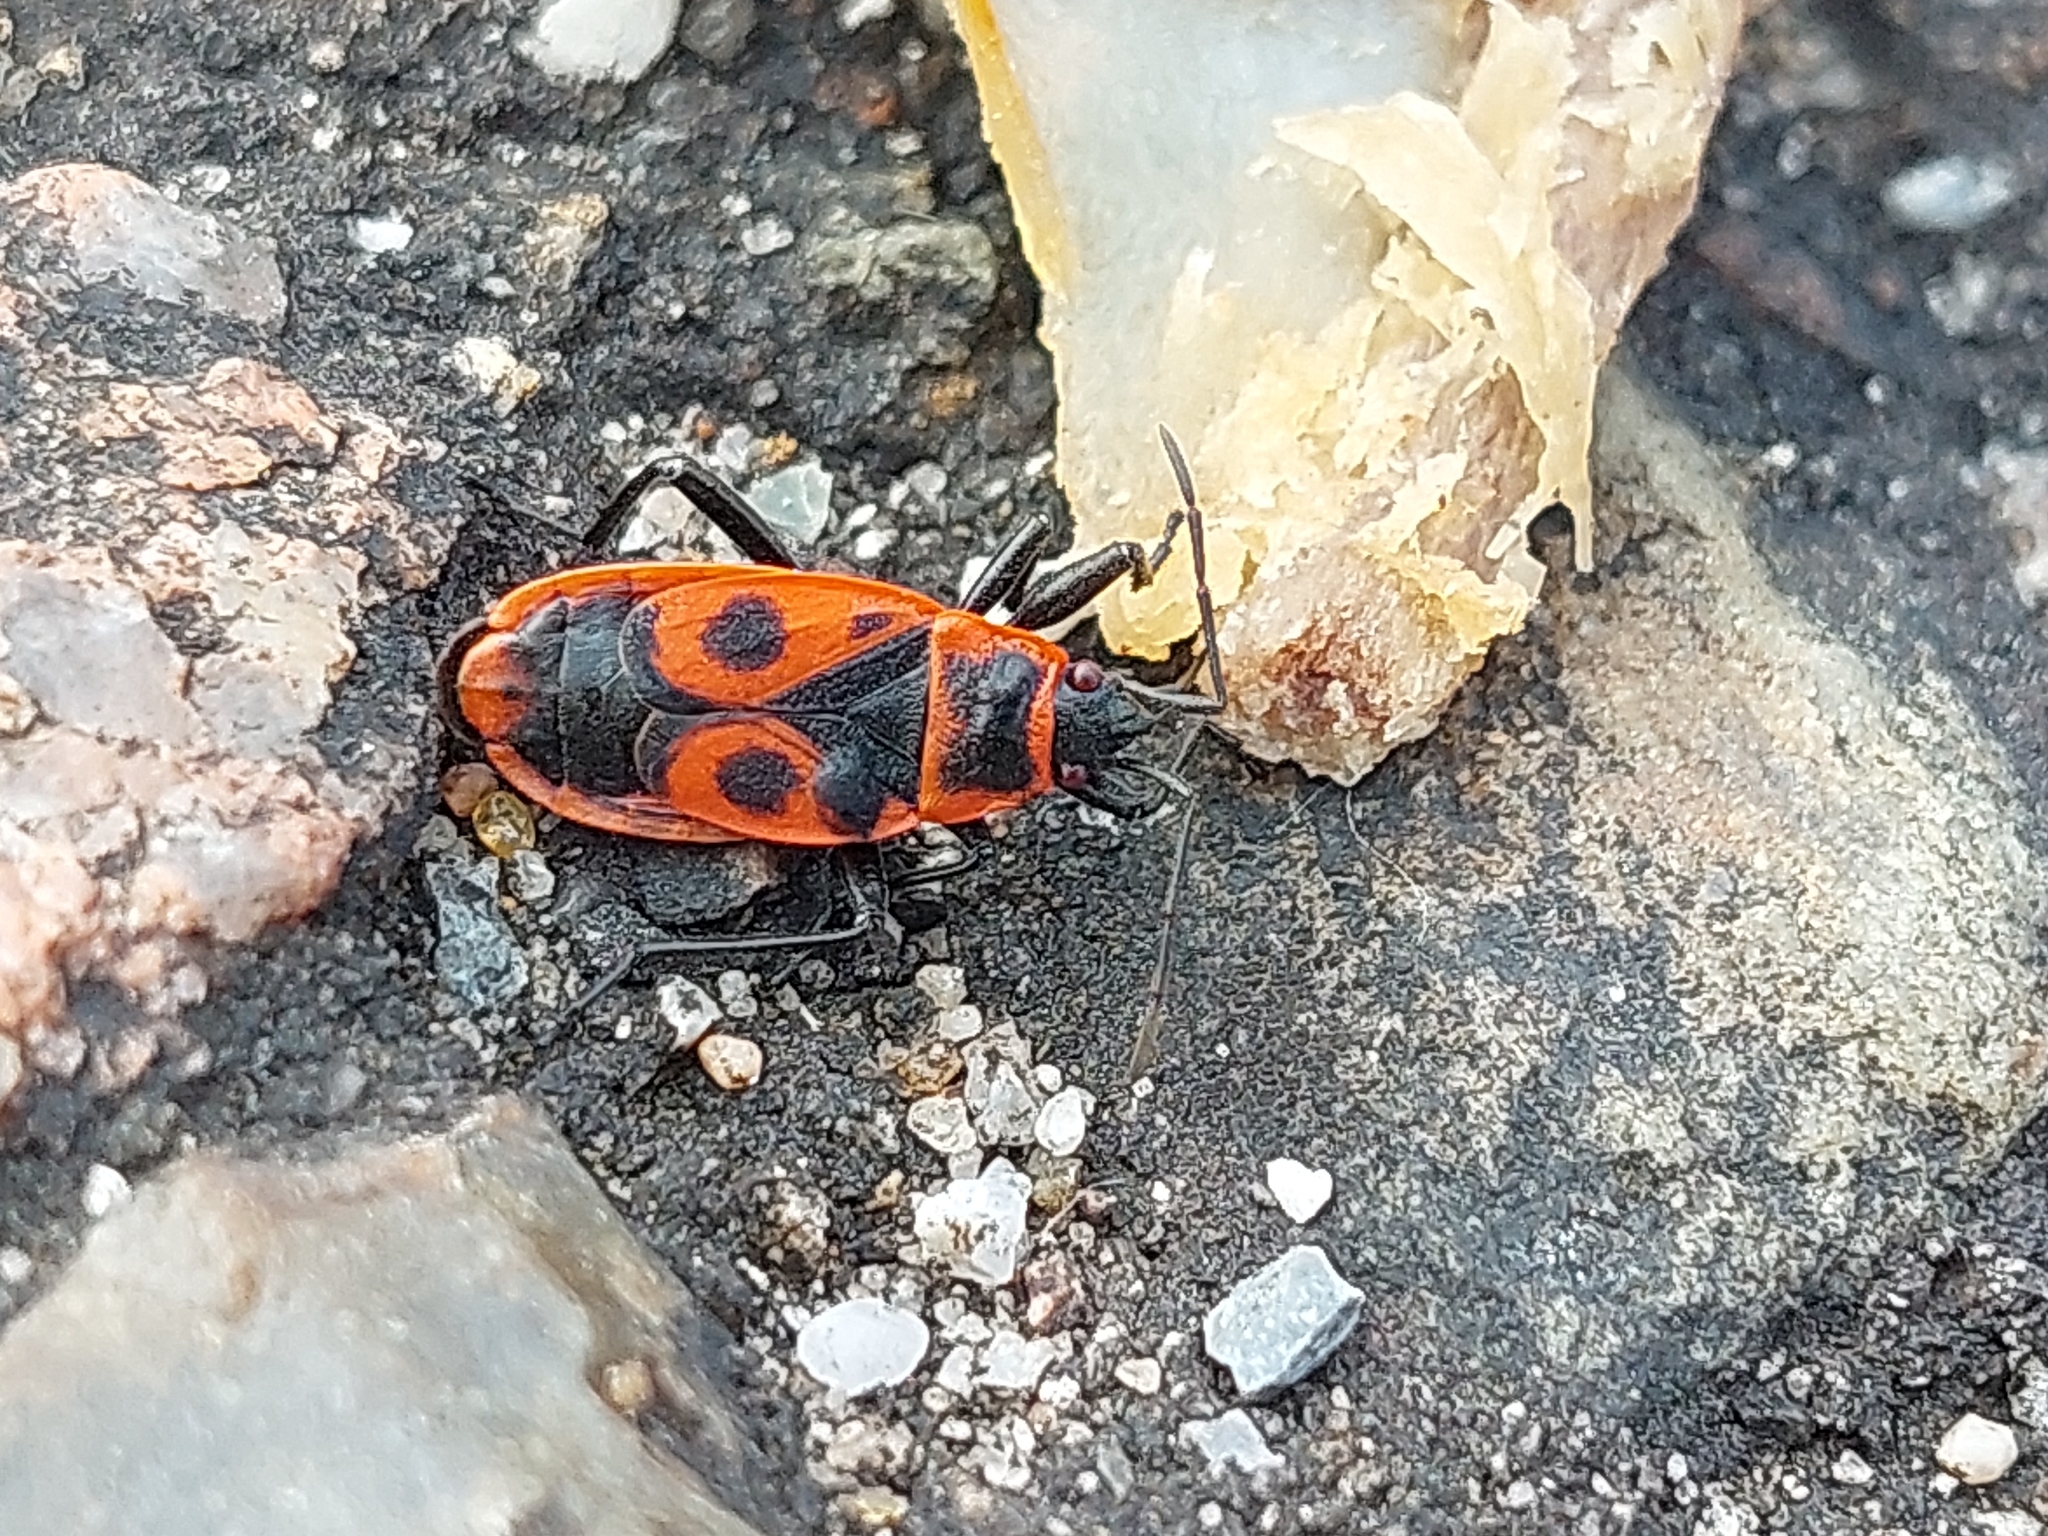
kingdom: Animalia
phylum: Arthropoda
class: Insecta
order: Hemiptera
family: Pyrrhocoridae
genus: Pyrrhocoris
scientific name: Pyrrhocoris apterus
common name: Firebug
